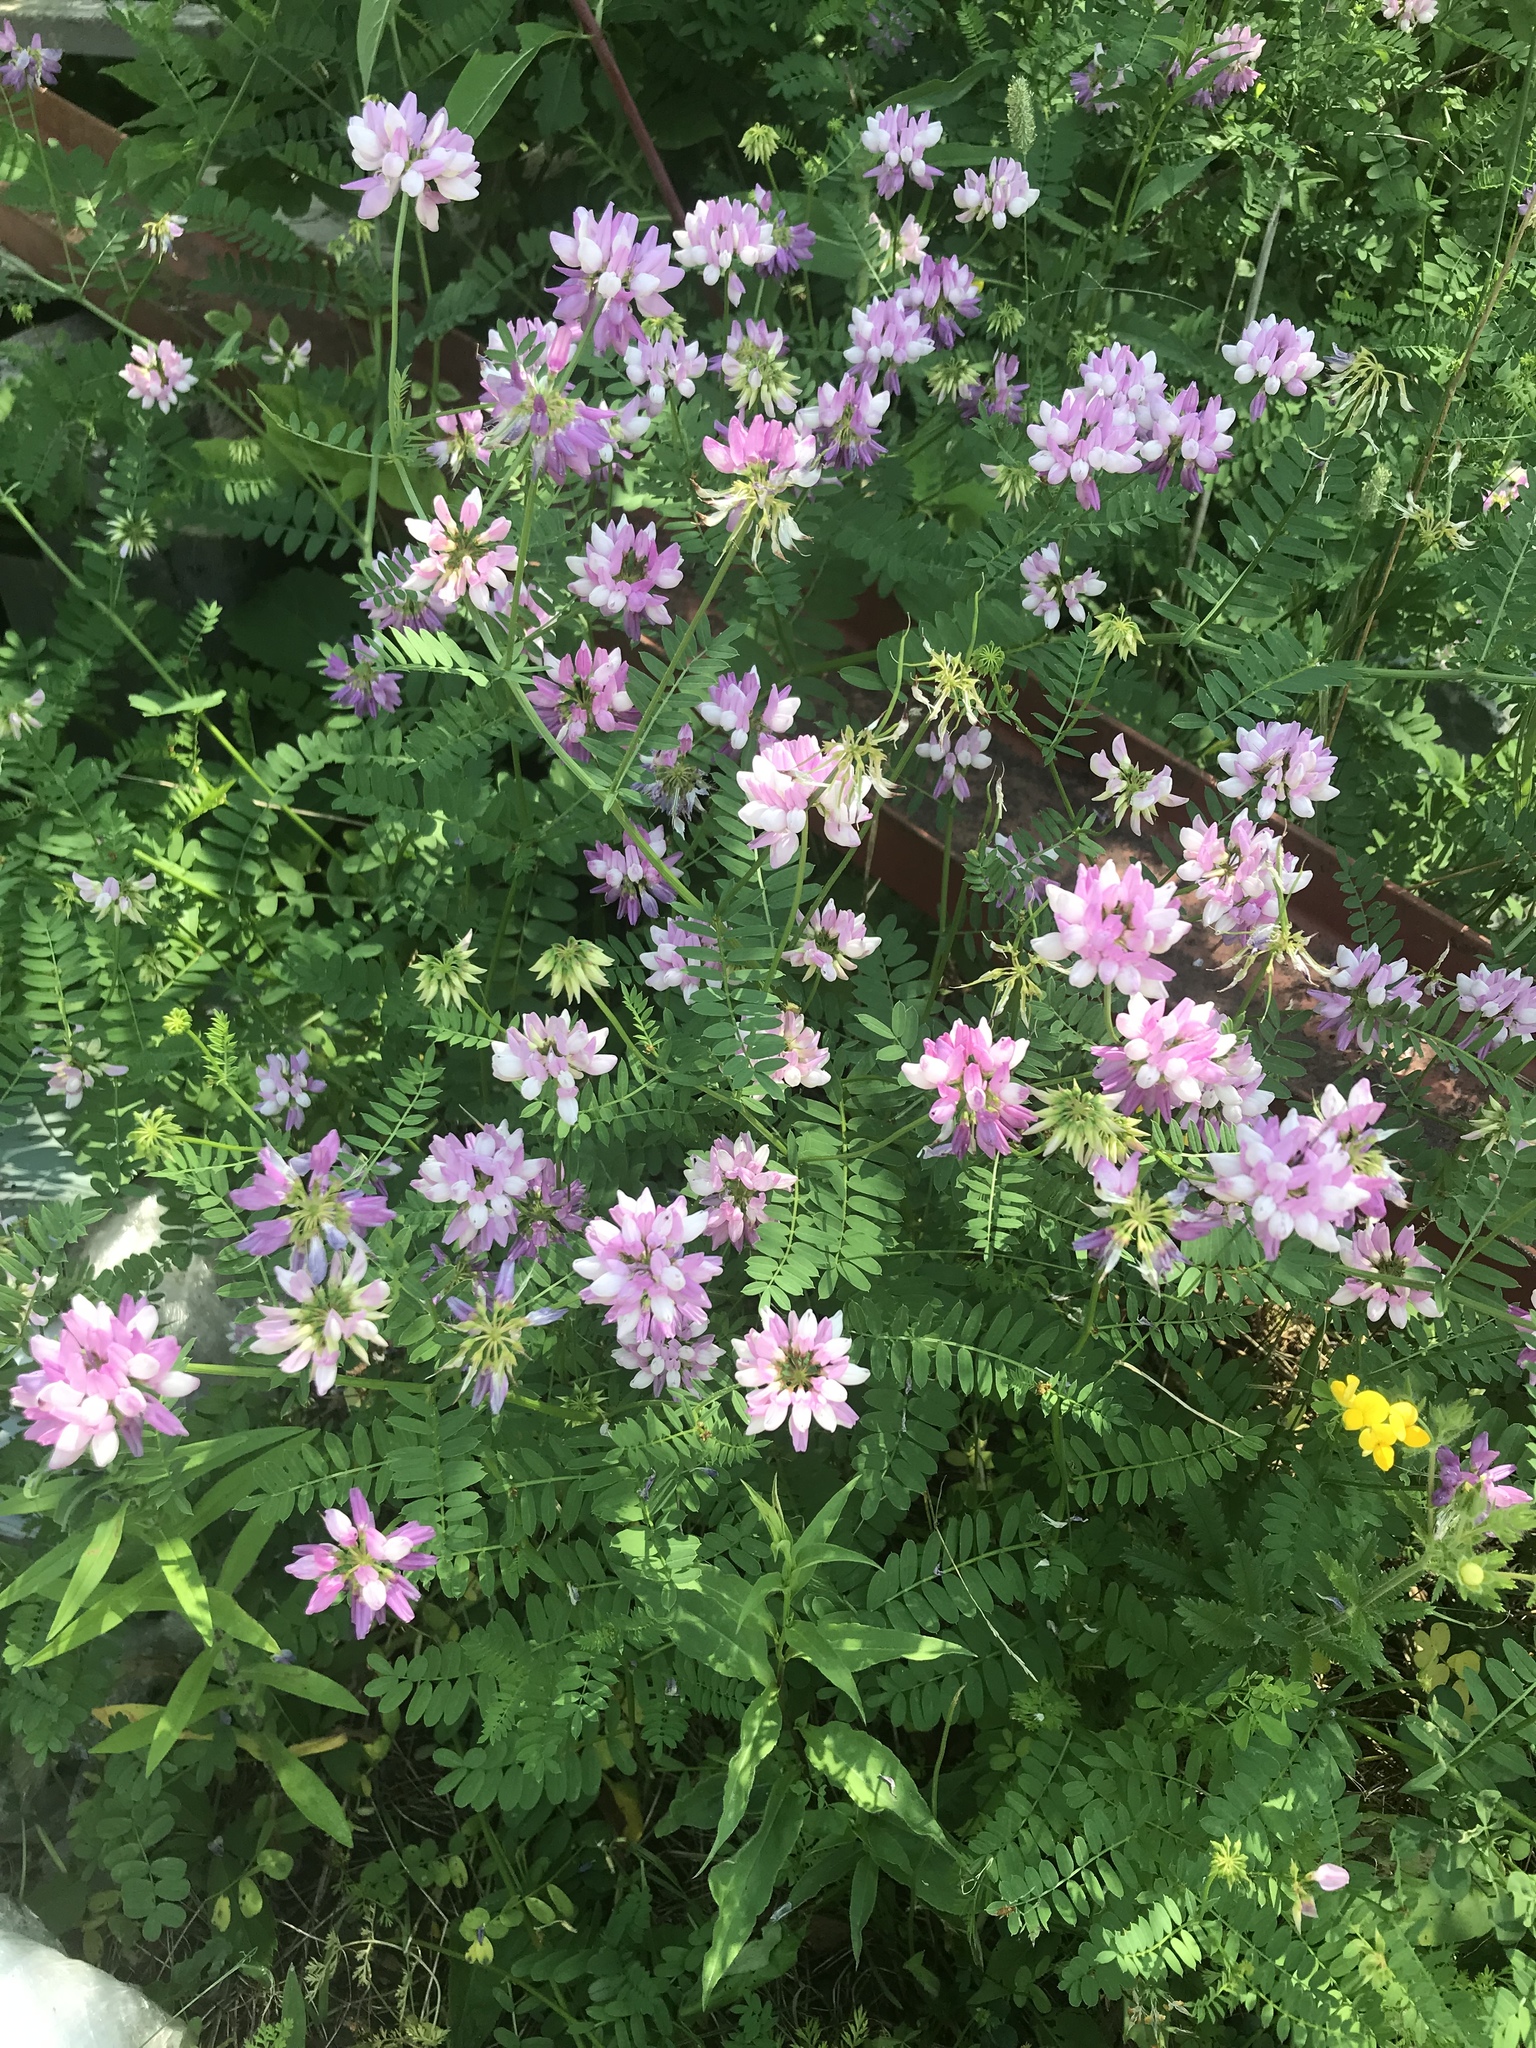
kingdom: Plantae
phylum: Tracheophyta
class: Magnoliopsida
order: Fabales
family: Fabaceae
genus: Coronilla
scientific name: Coronilla varia
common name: Crownvetch
